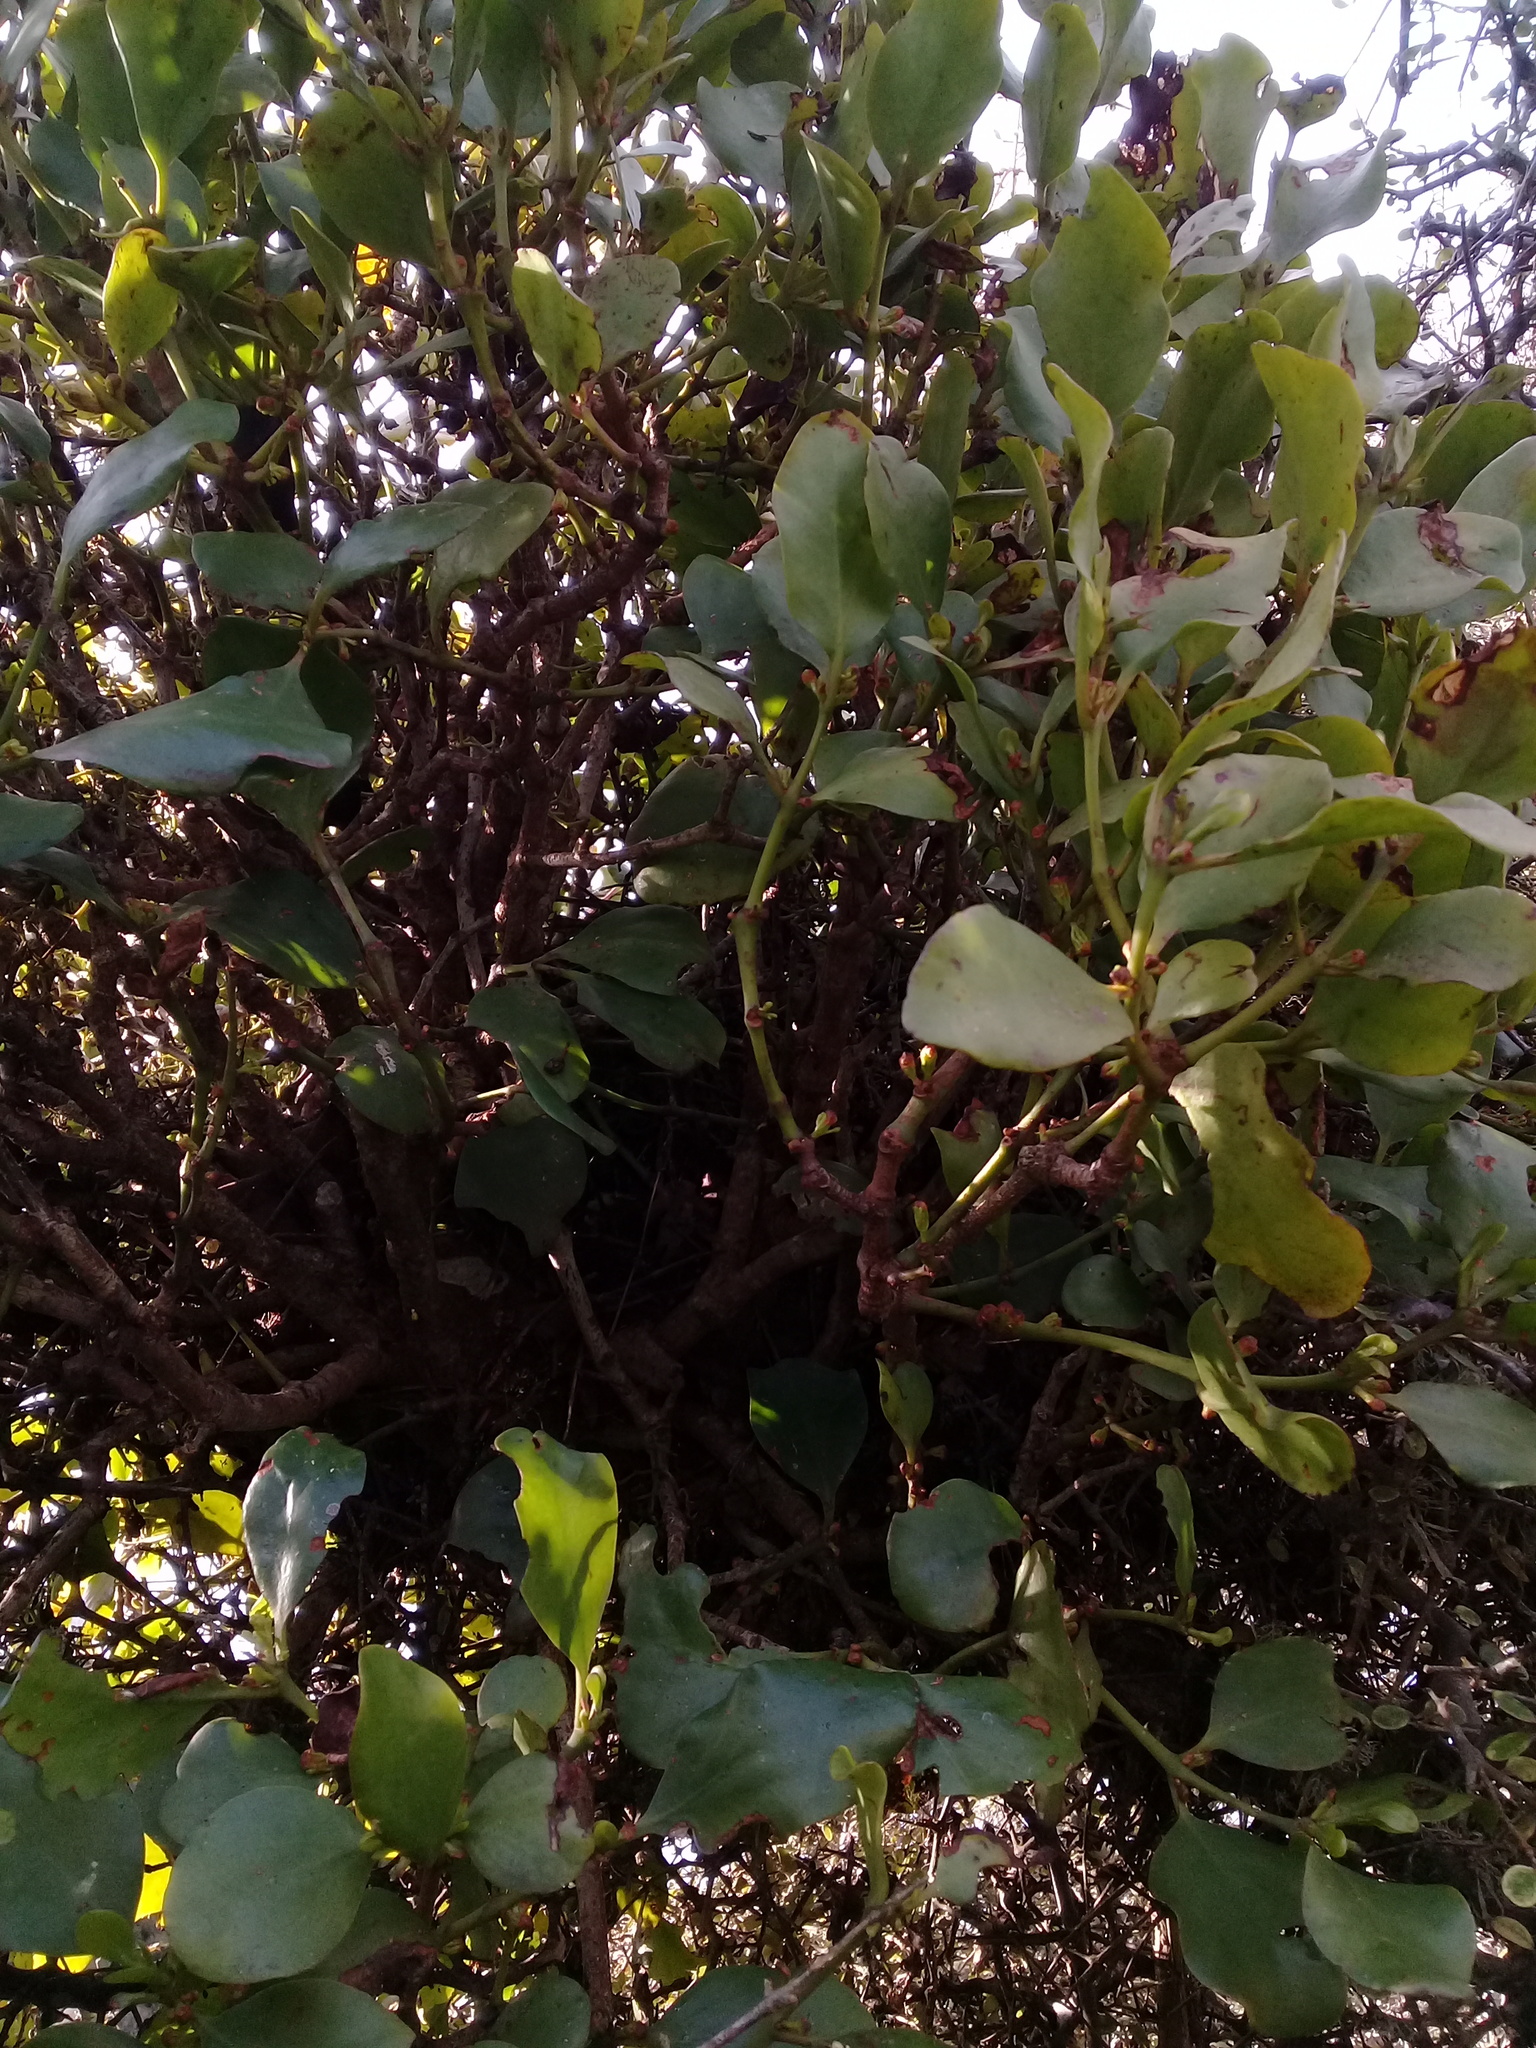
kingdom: Plantae
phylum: Tracheophyta
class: Magnoliopsida
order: Santalales
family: Loranthaceae
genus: Ileostylus
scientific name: Ileostylus micranthus
